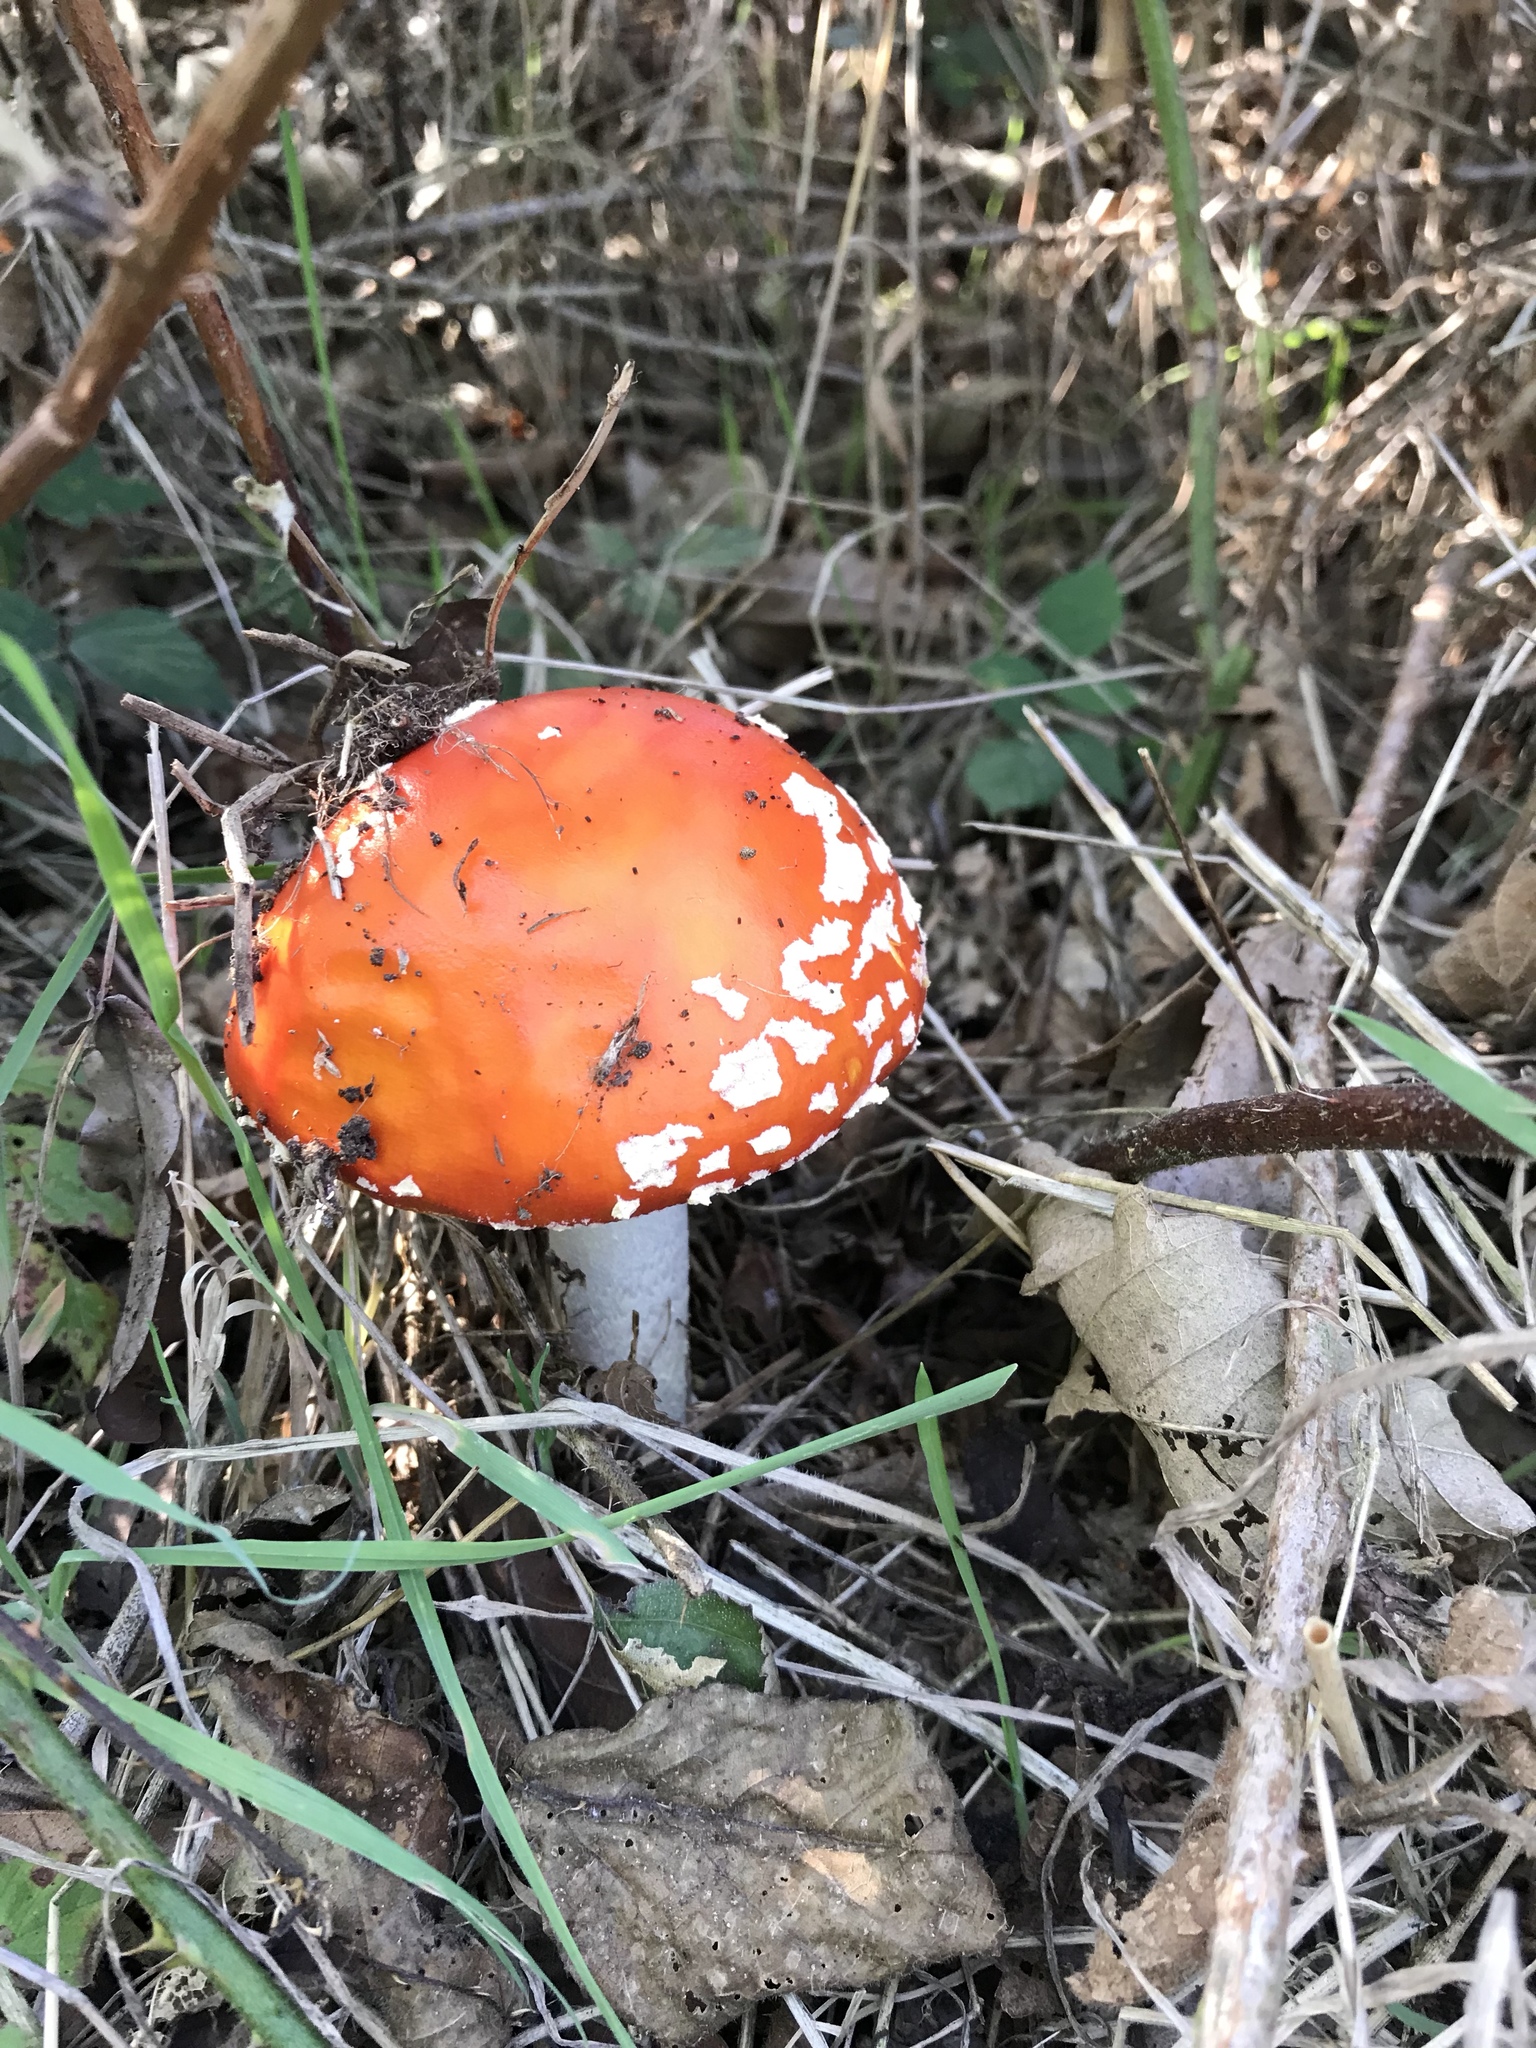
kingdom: Fungi
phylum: Basidiomycota
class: Agaricomycetes
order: Agaricales
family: Amanitaceae
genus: Amanita
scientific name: Amanita muscaria
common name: Fly agaric
